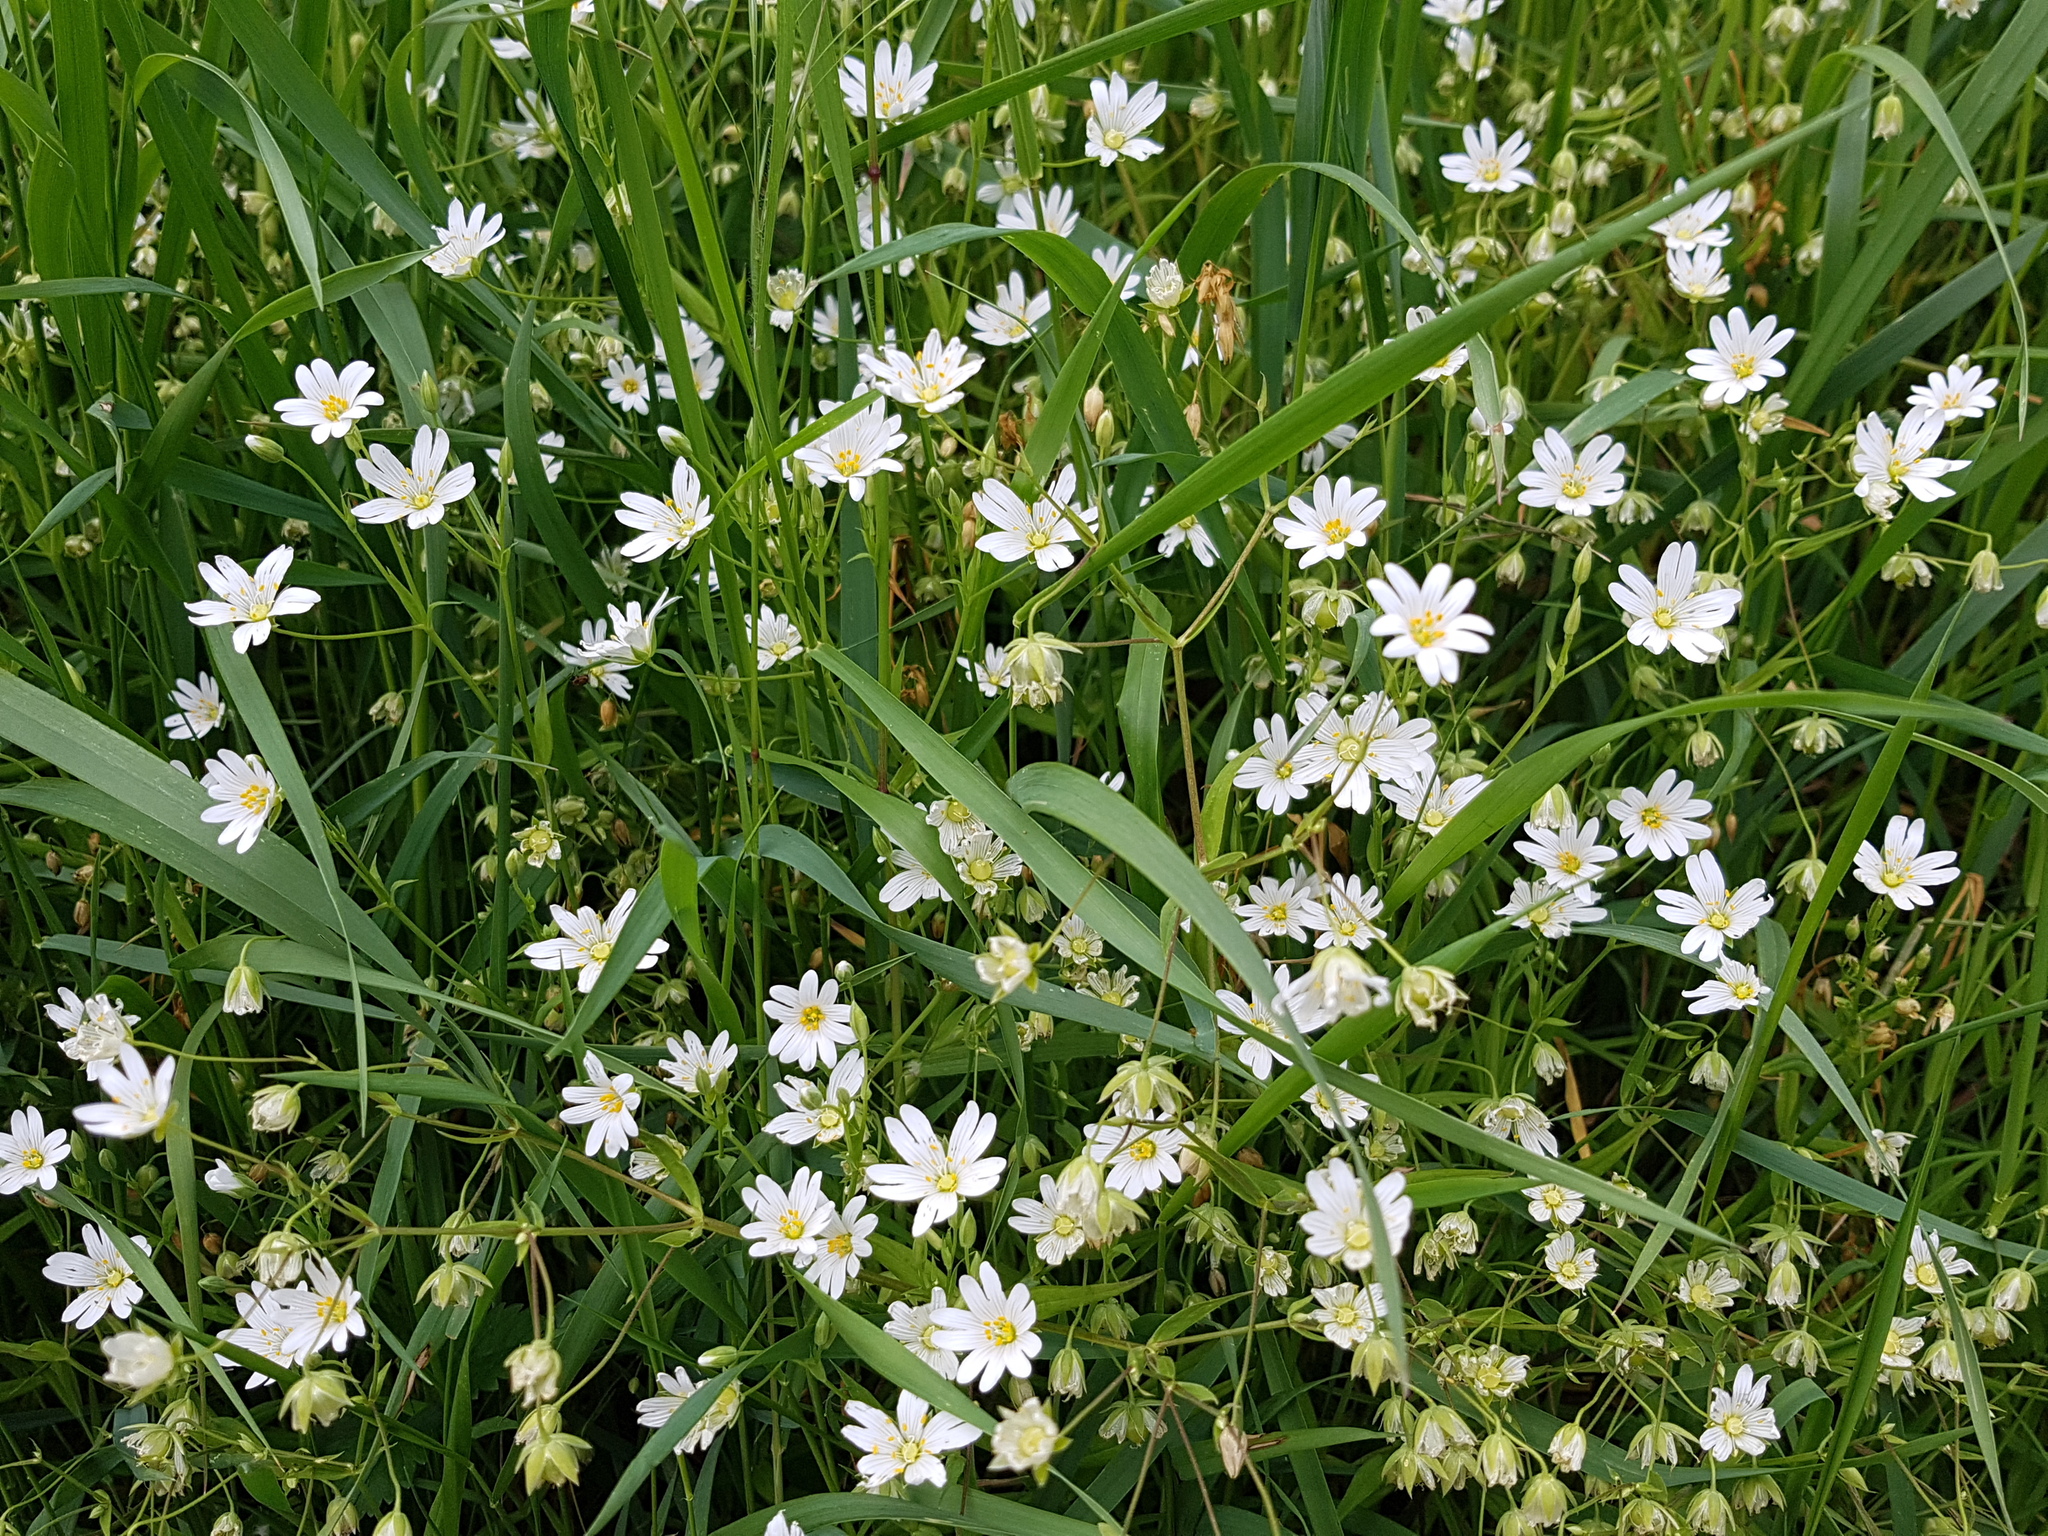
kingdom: Plantae
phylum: Tracheophyta
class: Magnoliopsida
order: Caryophyllales
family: Caryophyllaceae
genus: Rabelera
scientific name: Rabelera holostea
